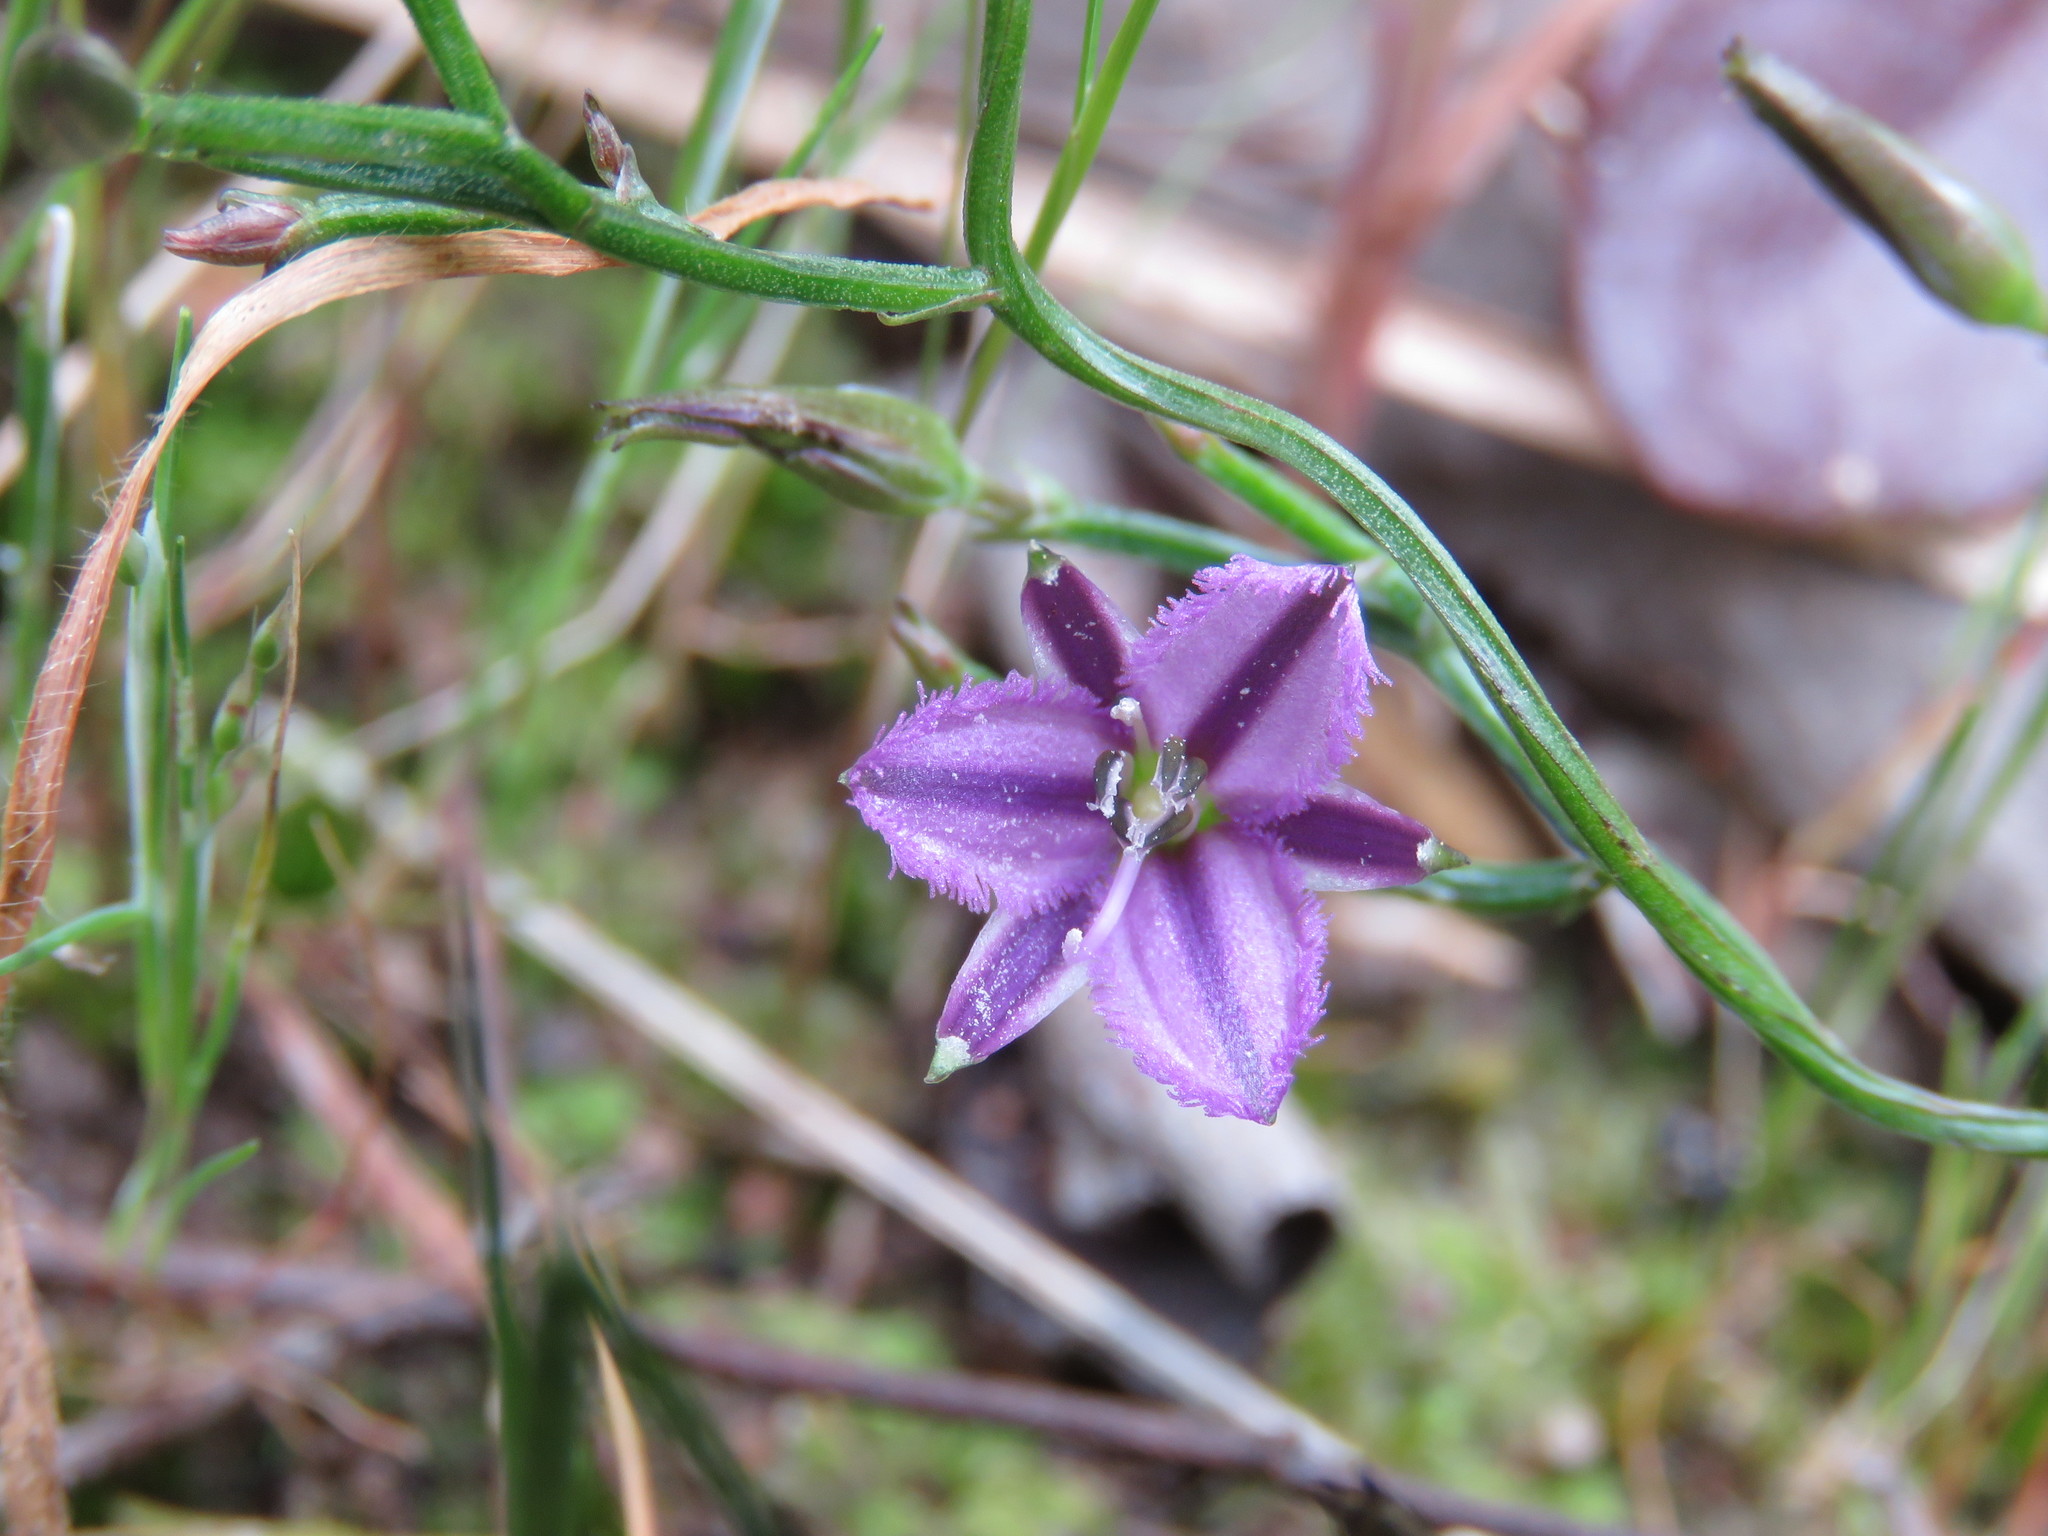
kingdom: Plantae
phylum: Tracheophyta
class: Liliopsida
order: Asparagales
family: Asparagaceae
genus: Thysanotus
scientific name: Thysanotus patersonii
